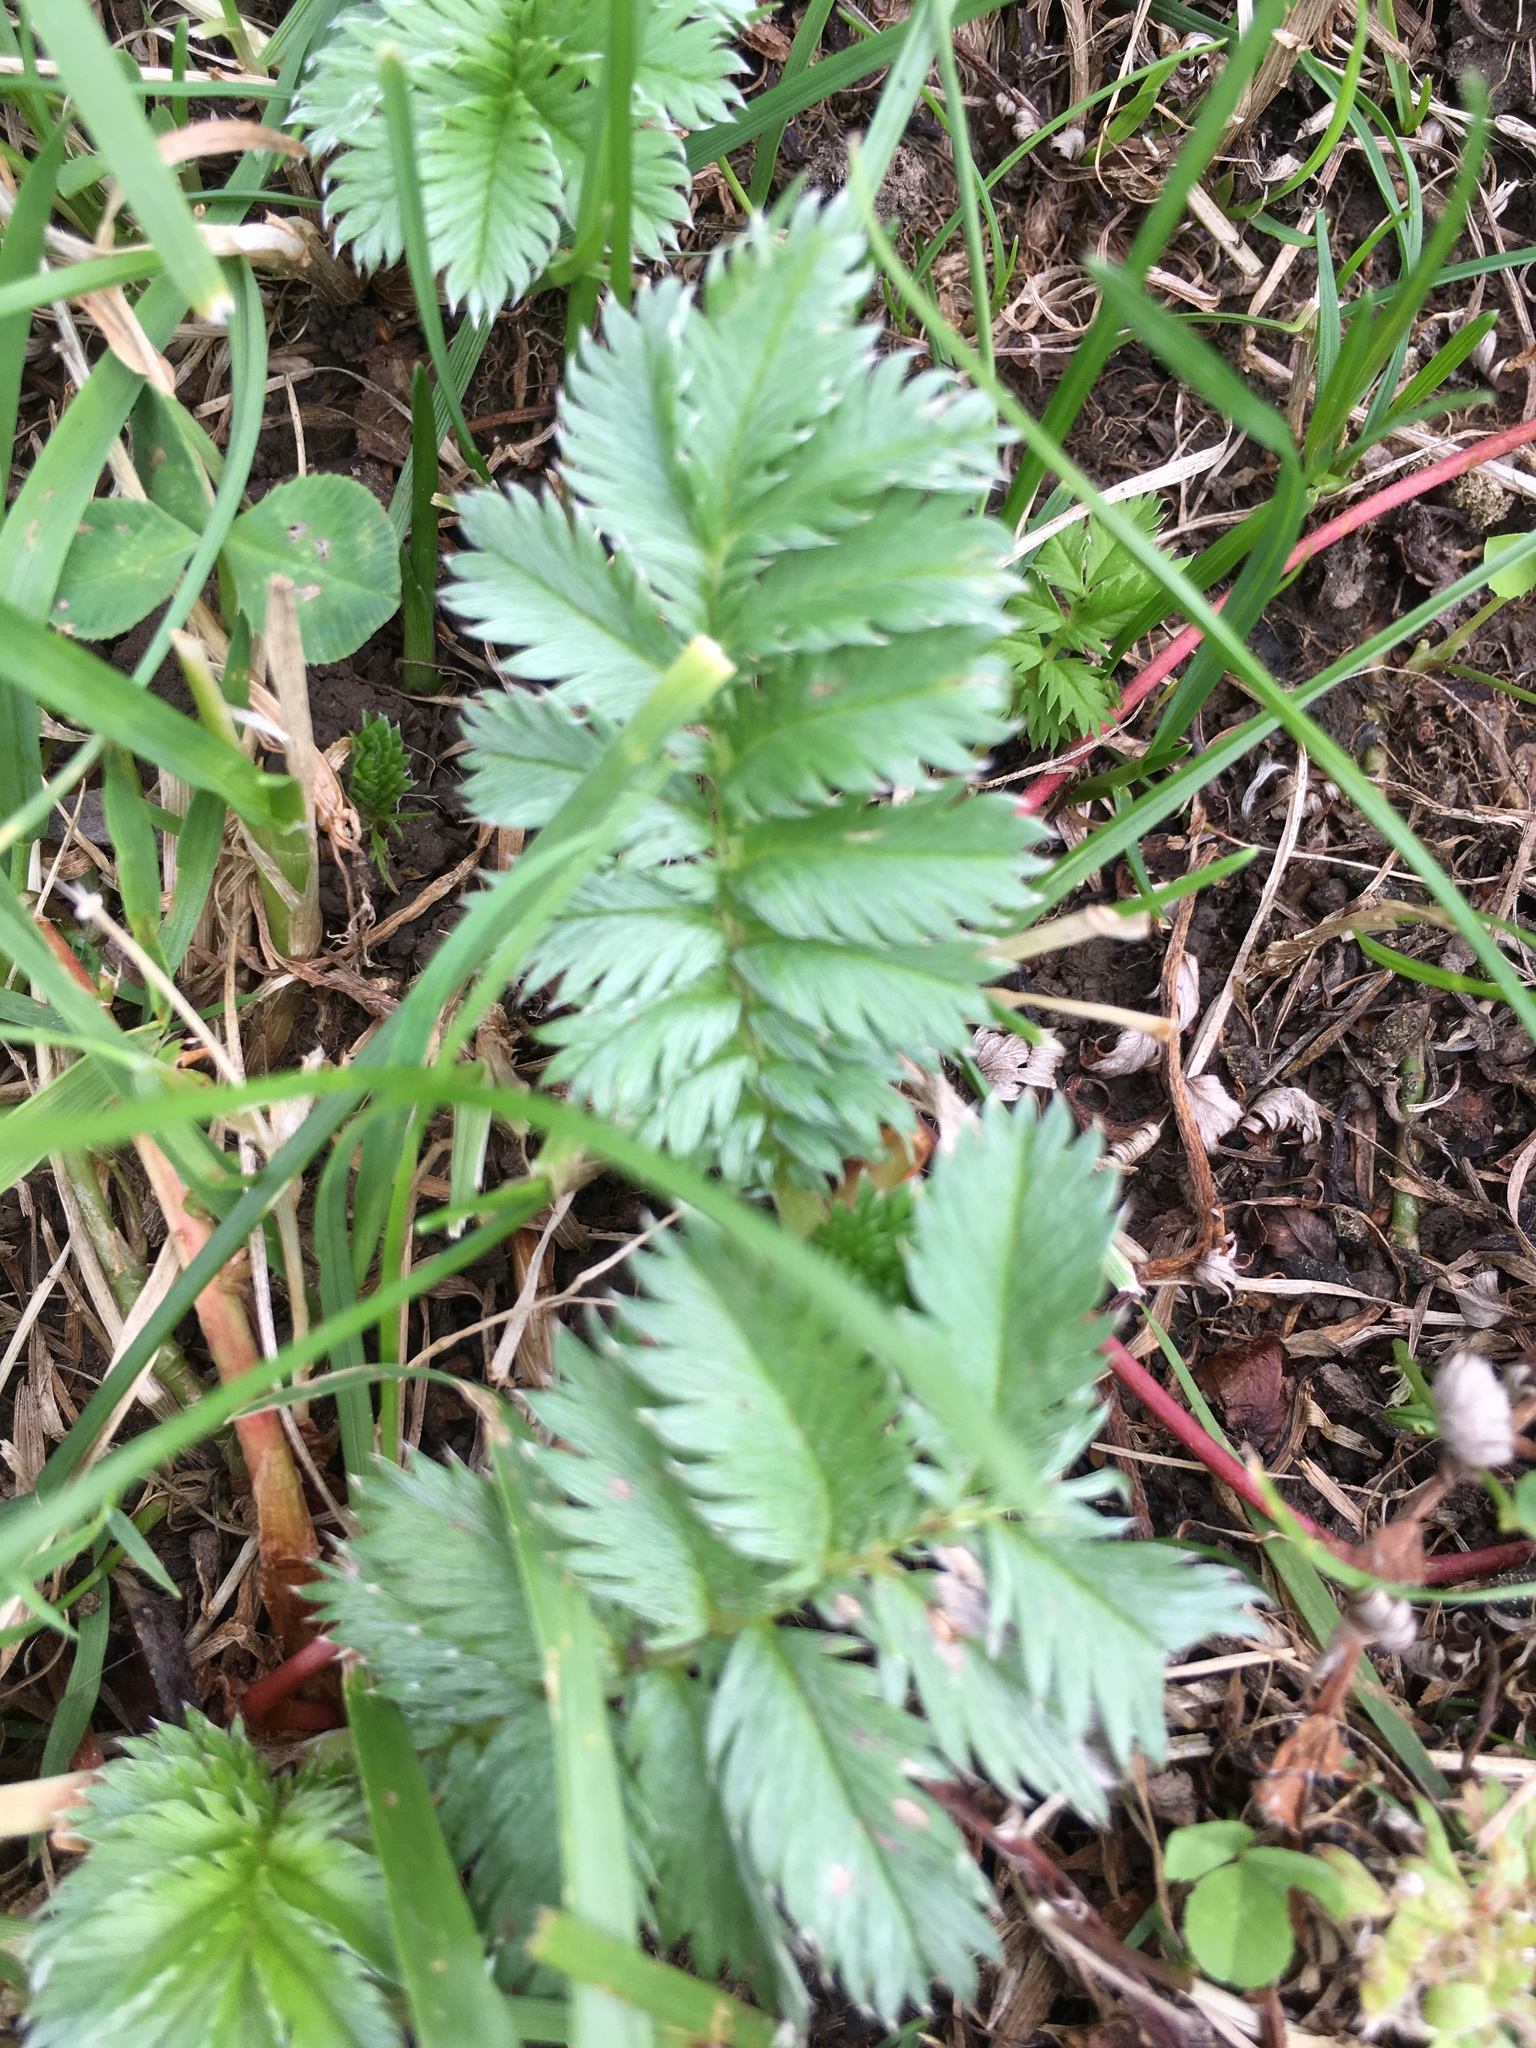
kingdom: Plantae
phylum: Tracheophyta
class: Magnoliopsida
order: Rosales
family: Rosaceae
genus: Argentina
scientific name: Argentina anserina
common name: Common silverweed
